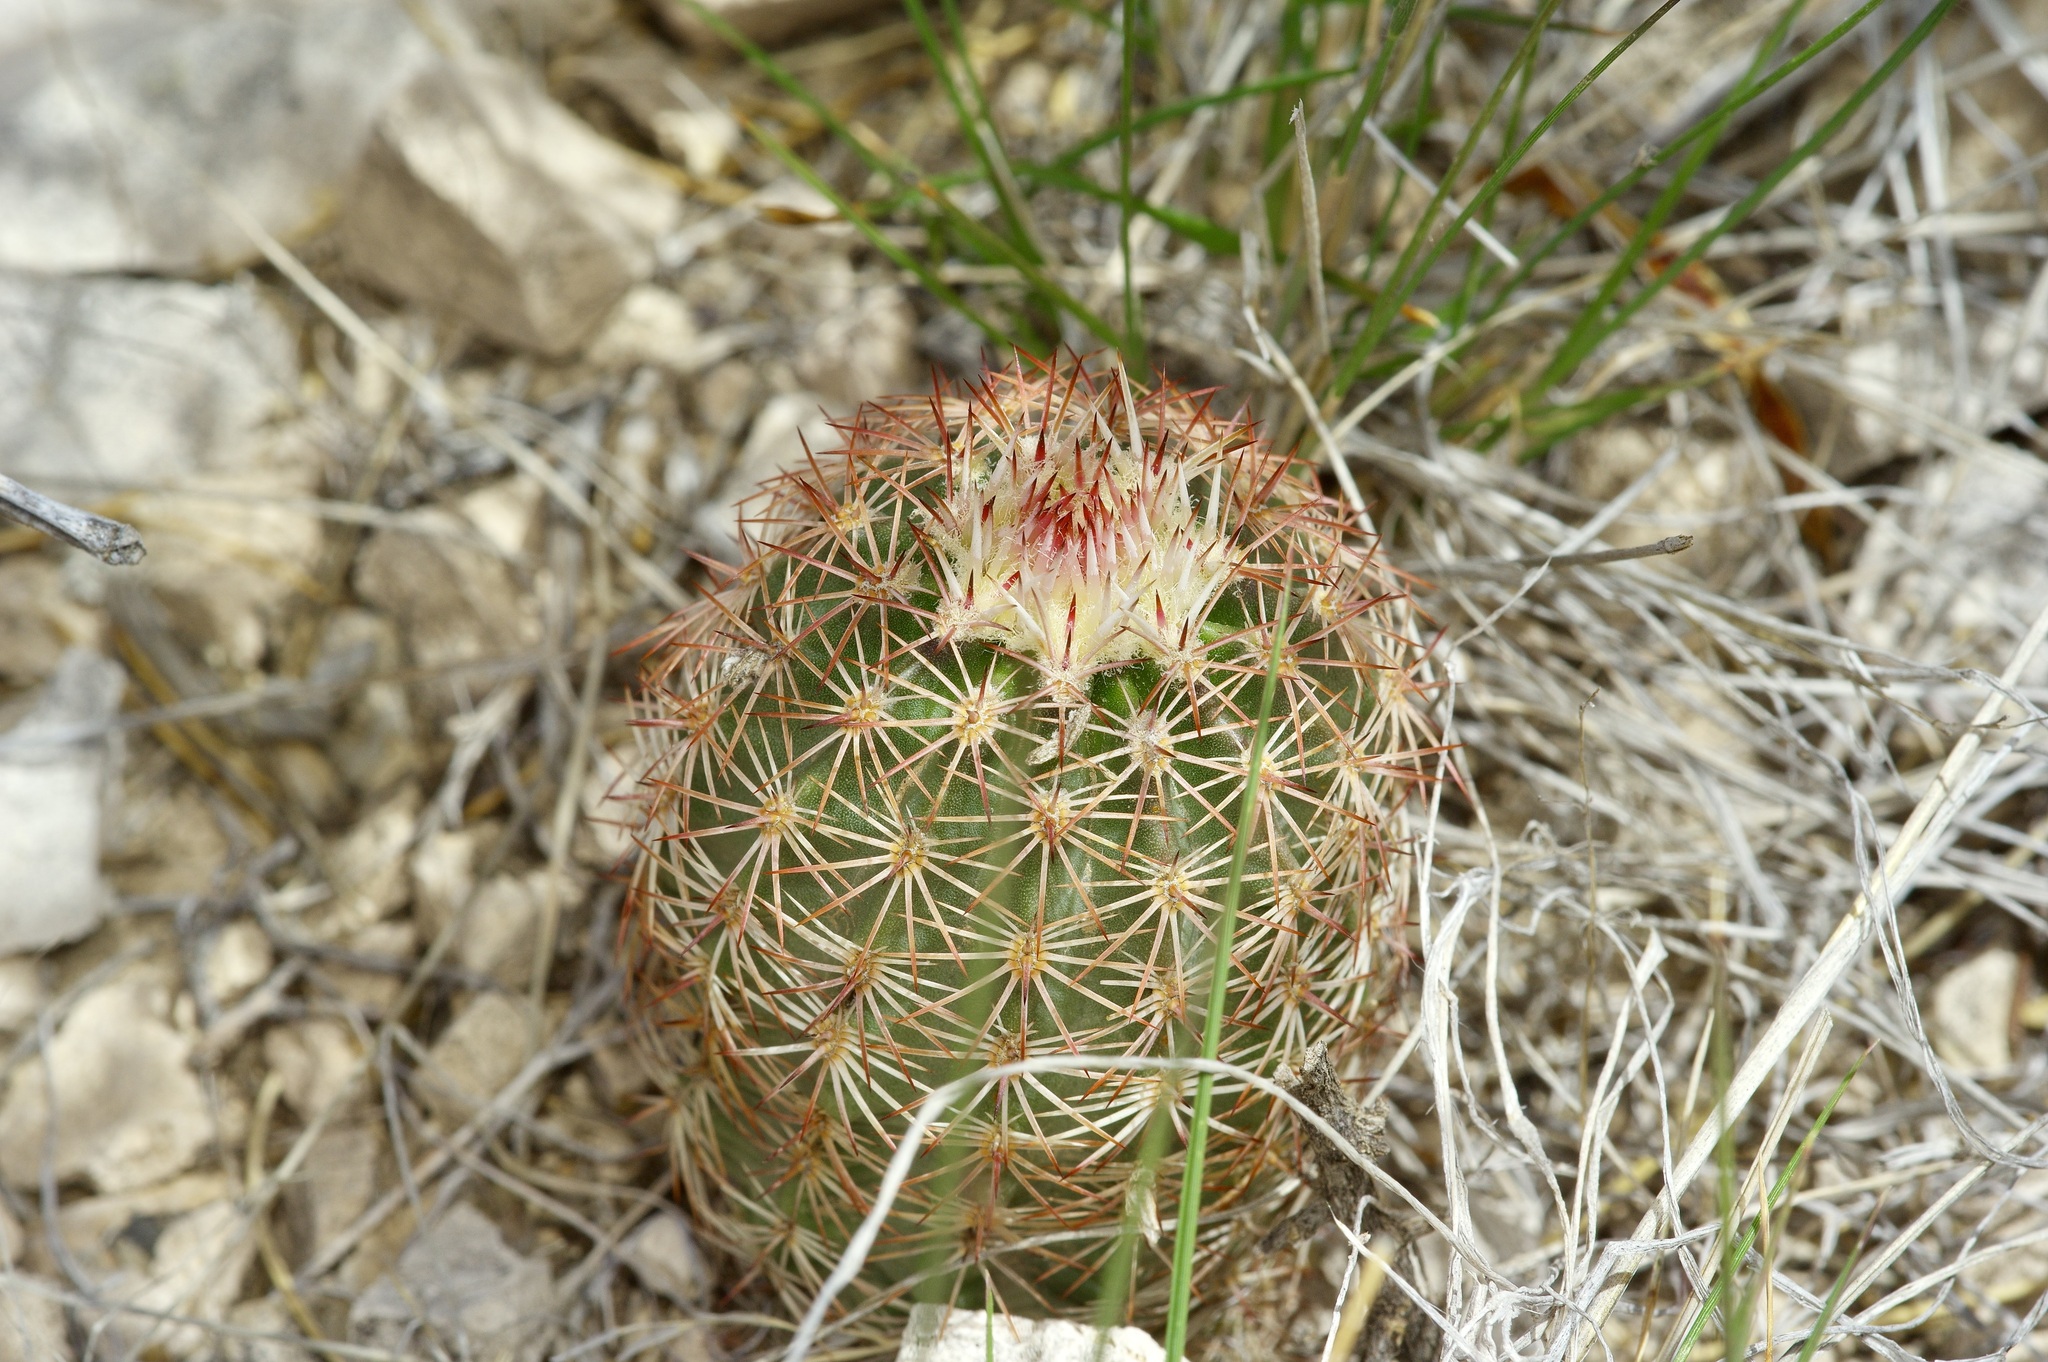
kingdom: Plantae
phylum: Tracheophyta
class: Magnoliopsida
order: Caryophyllales
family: Cactaceae
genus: Echinocereus
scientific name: Echinocereus
